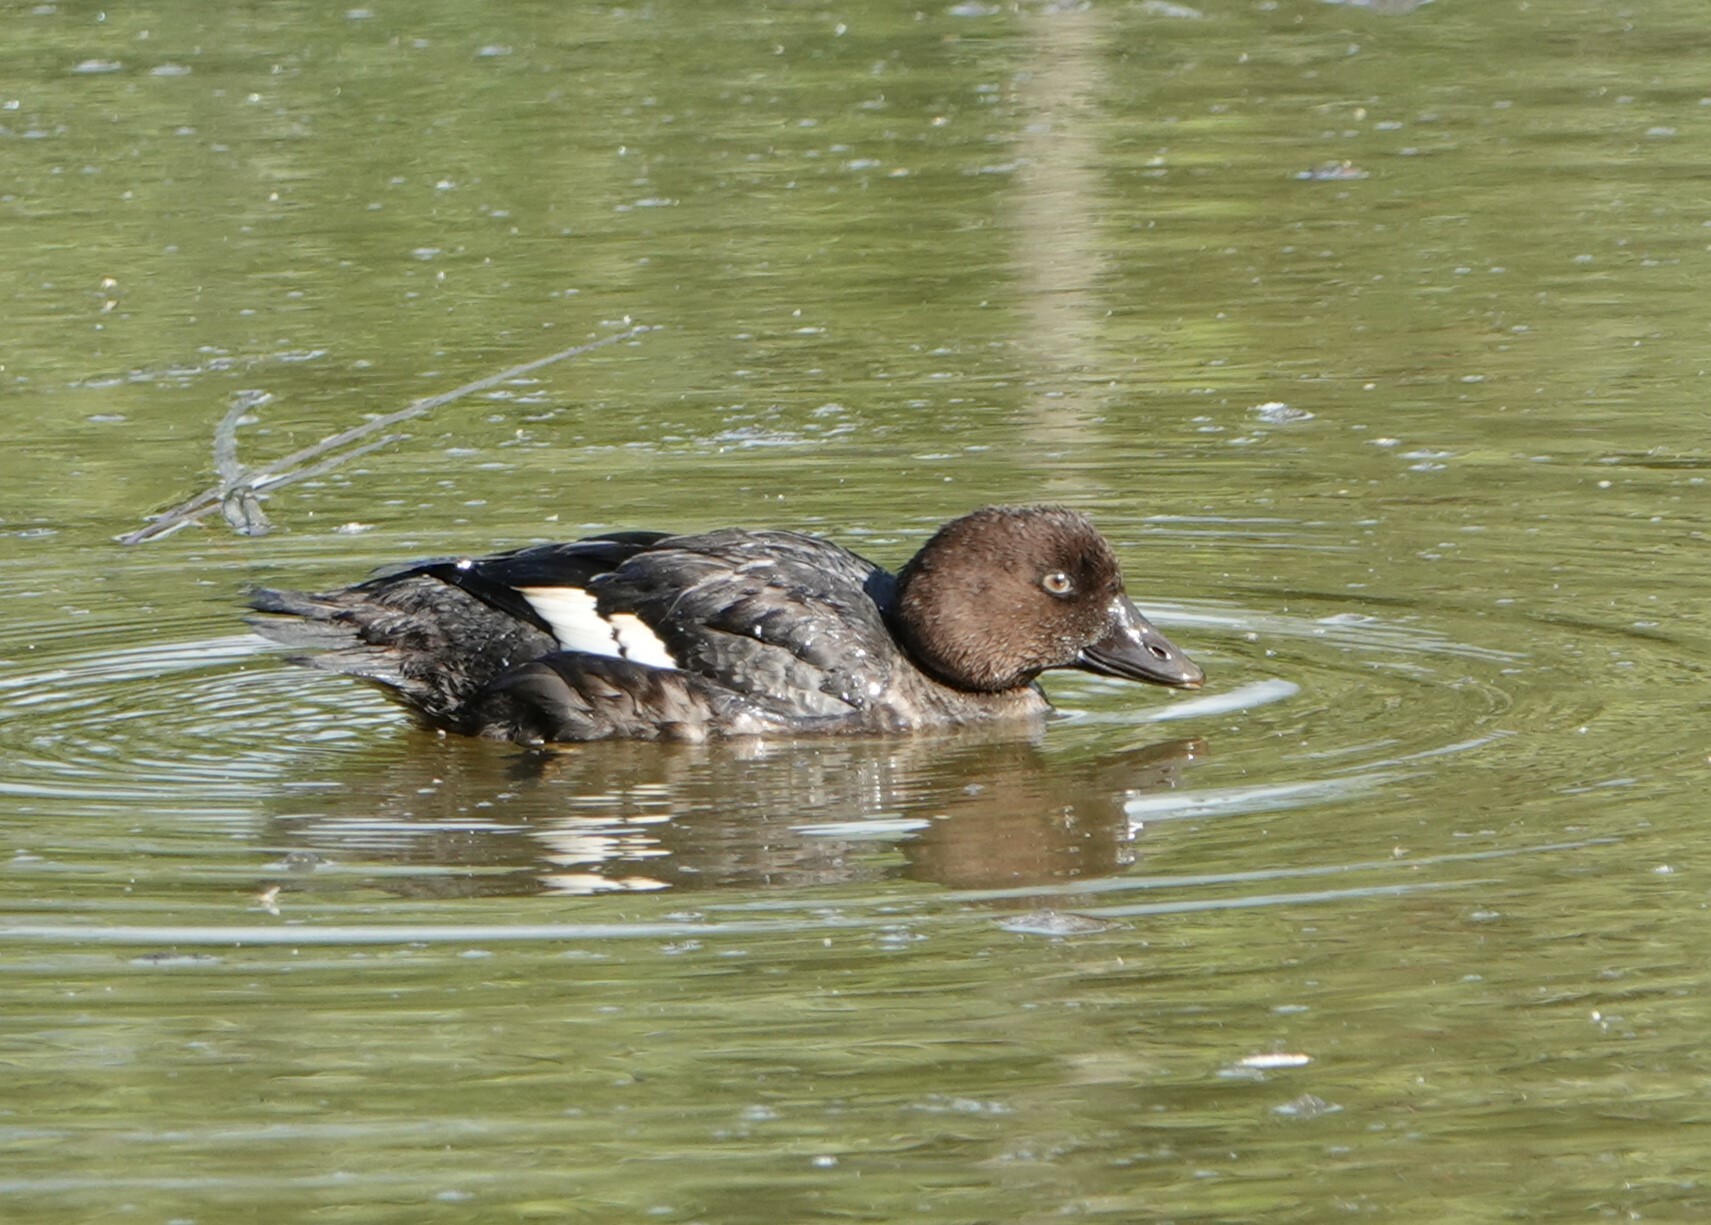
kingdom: Animalia
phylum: Chordata
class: Aves
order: Anseriformes
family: Anatidae
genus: Bucephala
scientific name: Bucephala clangula
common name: Common goldeneye
